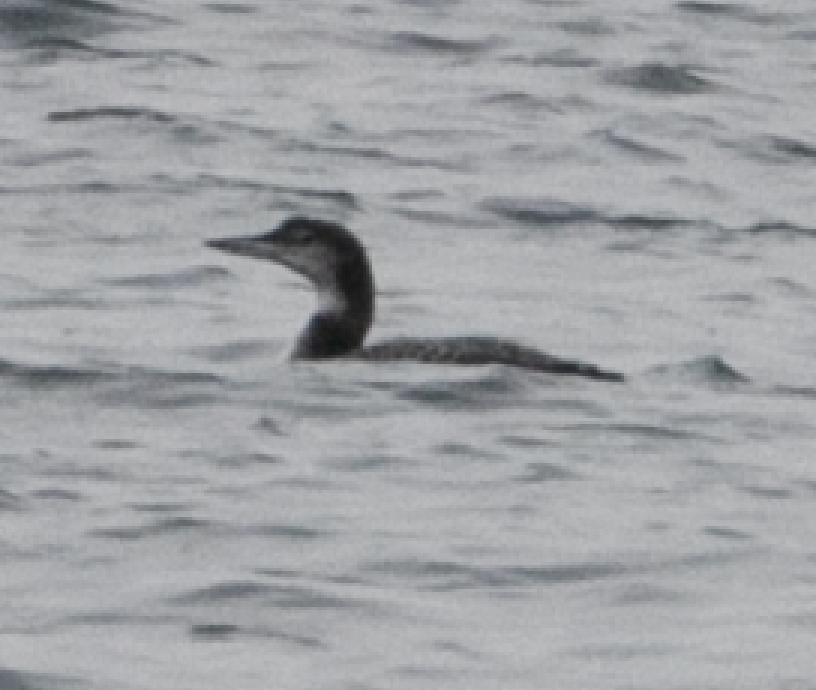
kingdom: Animalia
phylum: Chordata
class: Aves
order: Gaviiformes
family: Gaviidae
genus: Gavia
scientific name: Gavia immer
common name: Common loon
